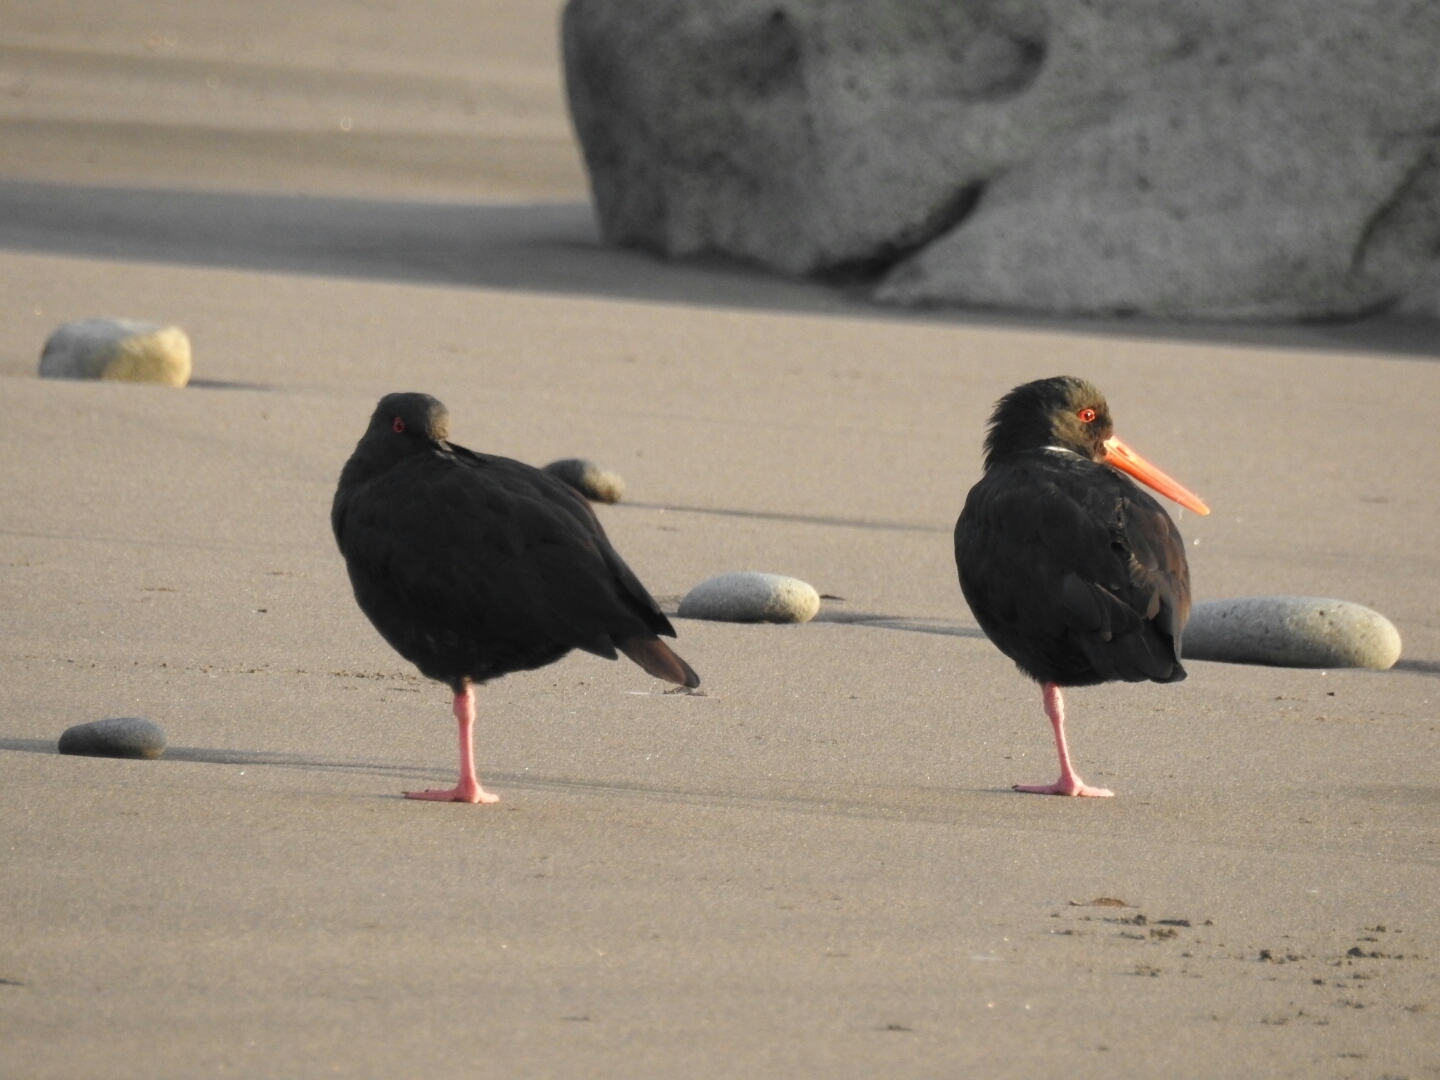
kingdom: Animalia
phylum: Chordata
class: Aves
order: Charadriiformes
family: Haematopodidae
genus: Haematopus
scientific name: Haematopus unicolor
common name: Variable oystercatcher
